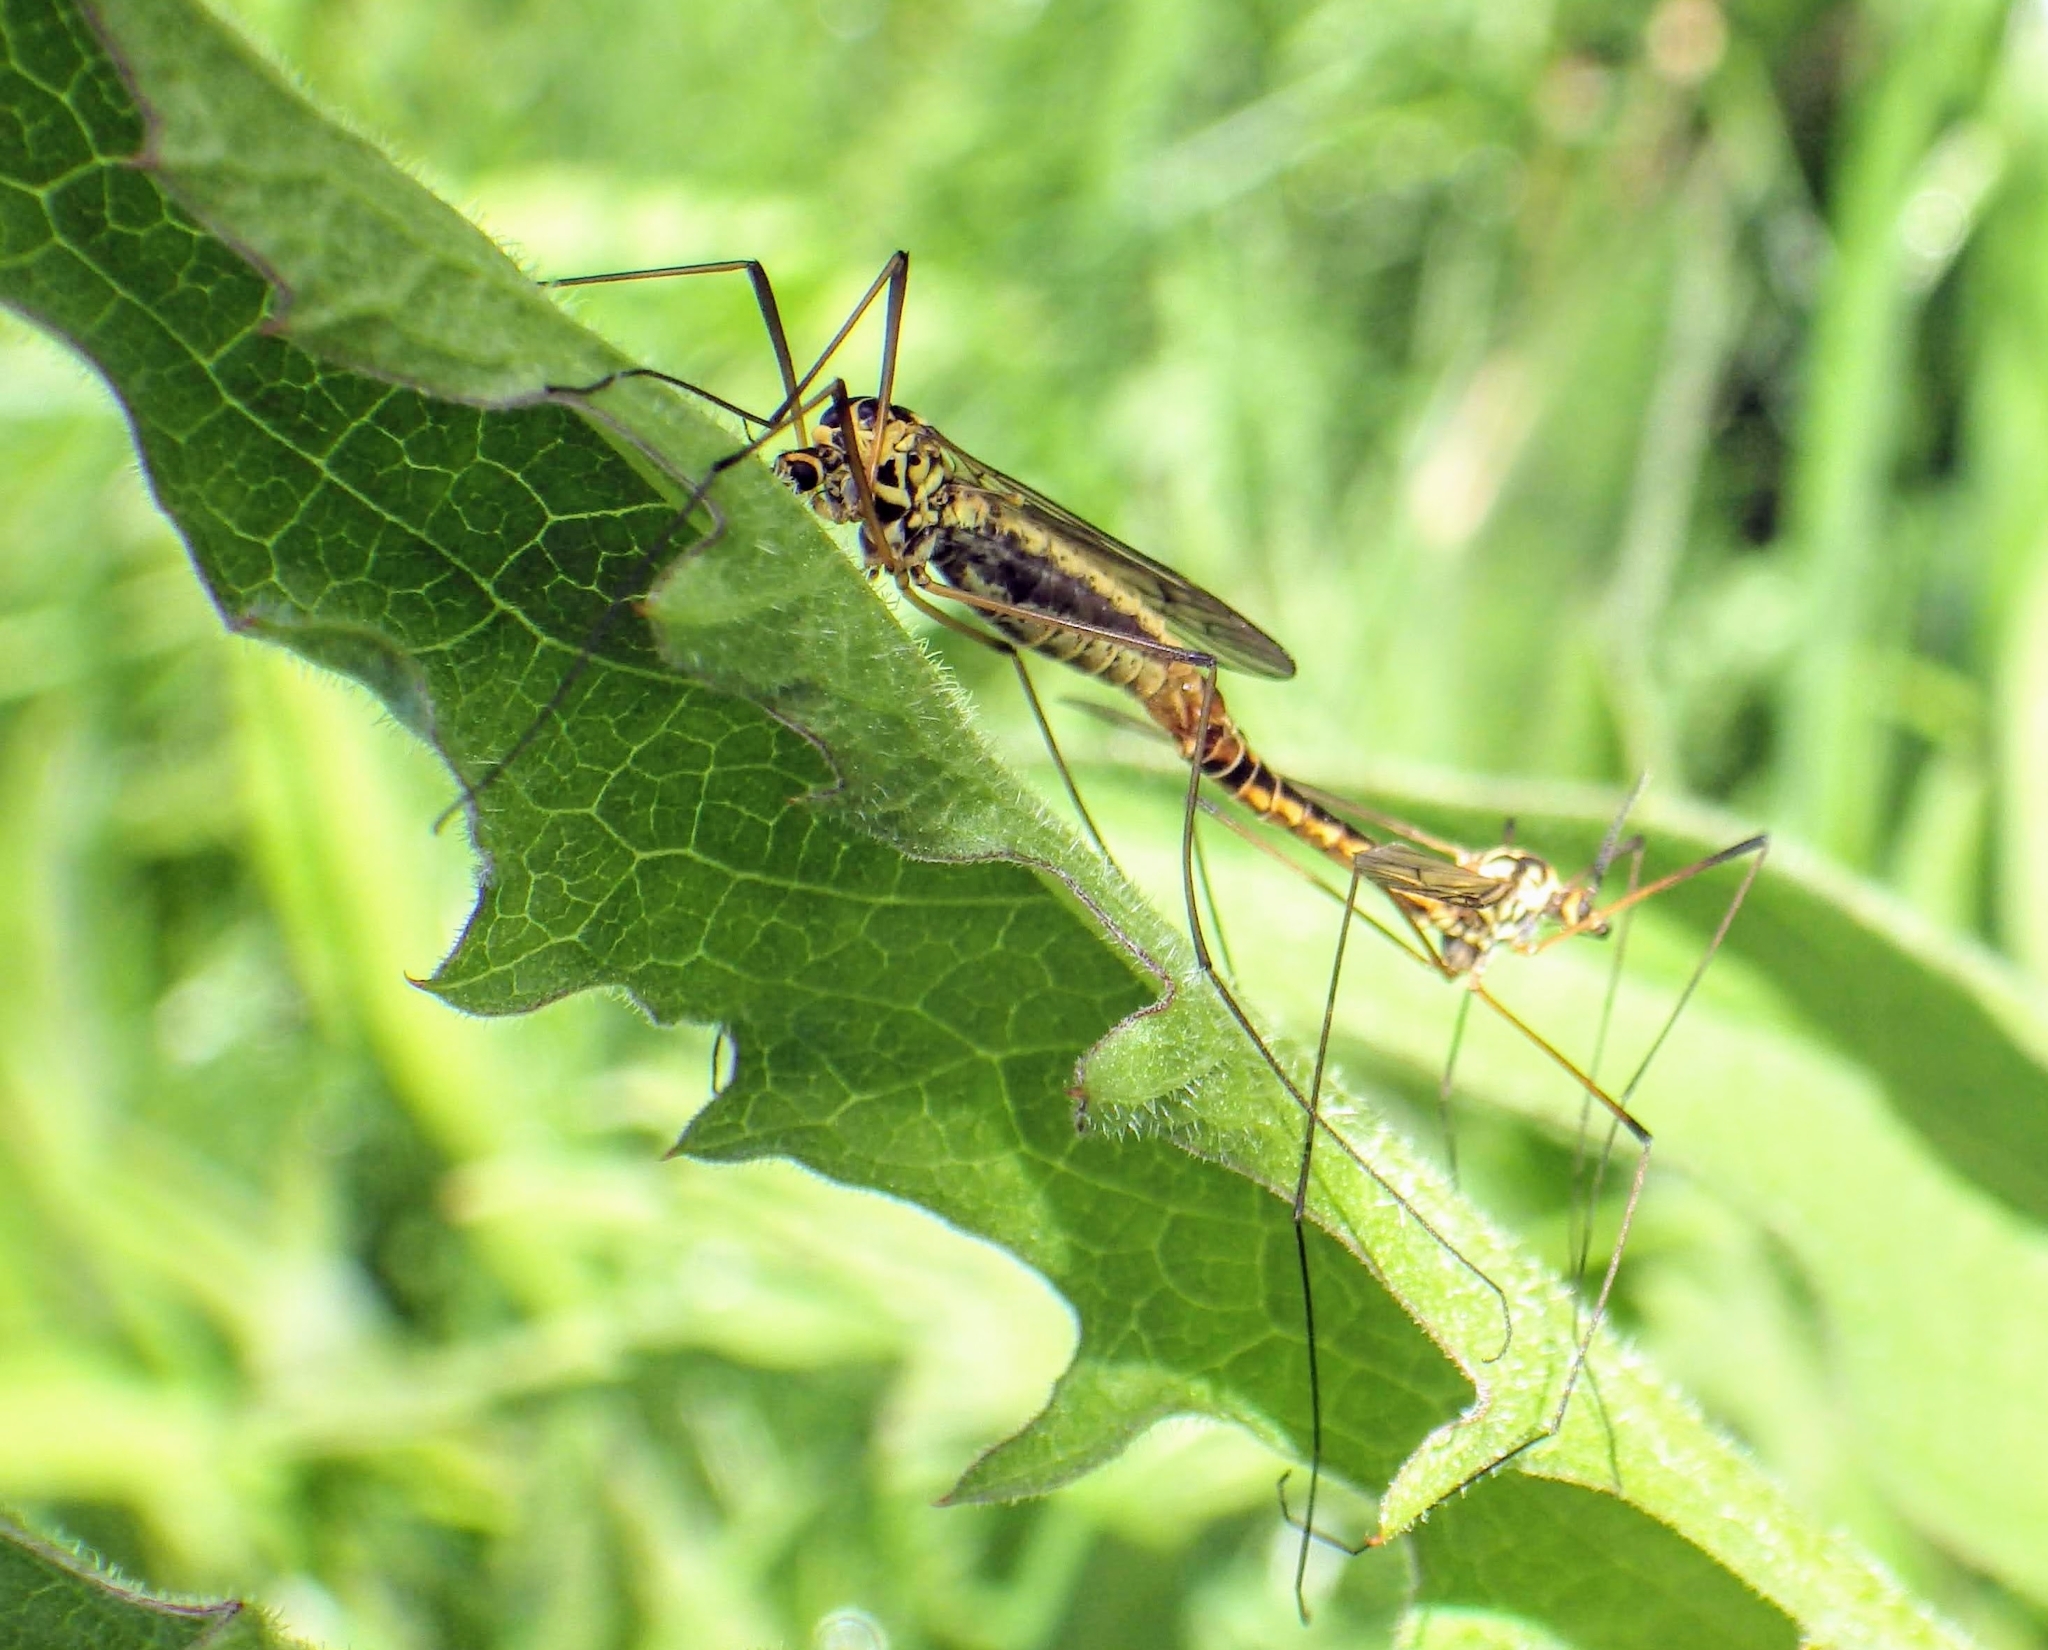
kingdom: Animalia
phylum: Arthropoda
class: Insecta
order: Diptera
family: Tipulidae
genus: Nephrotoma
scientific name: Nephrotoma appendiculata
